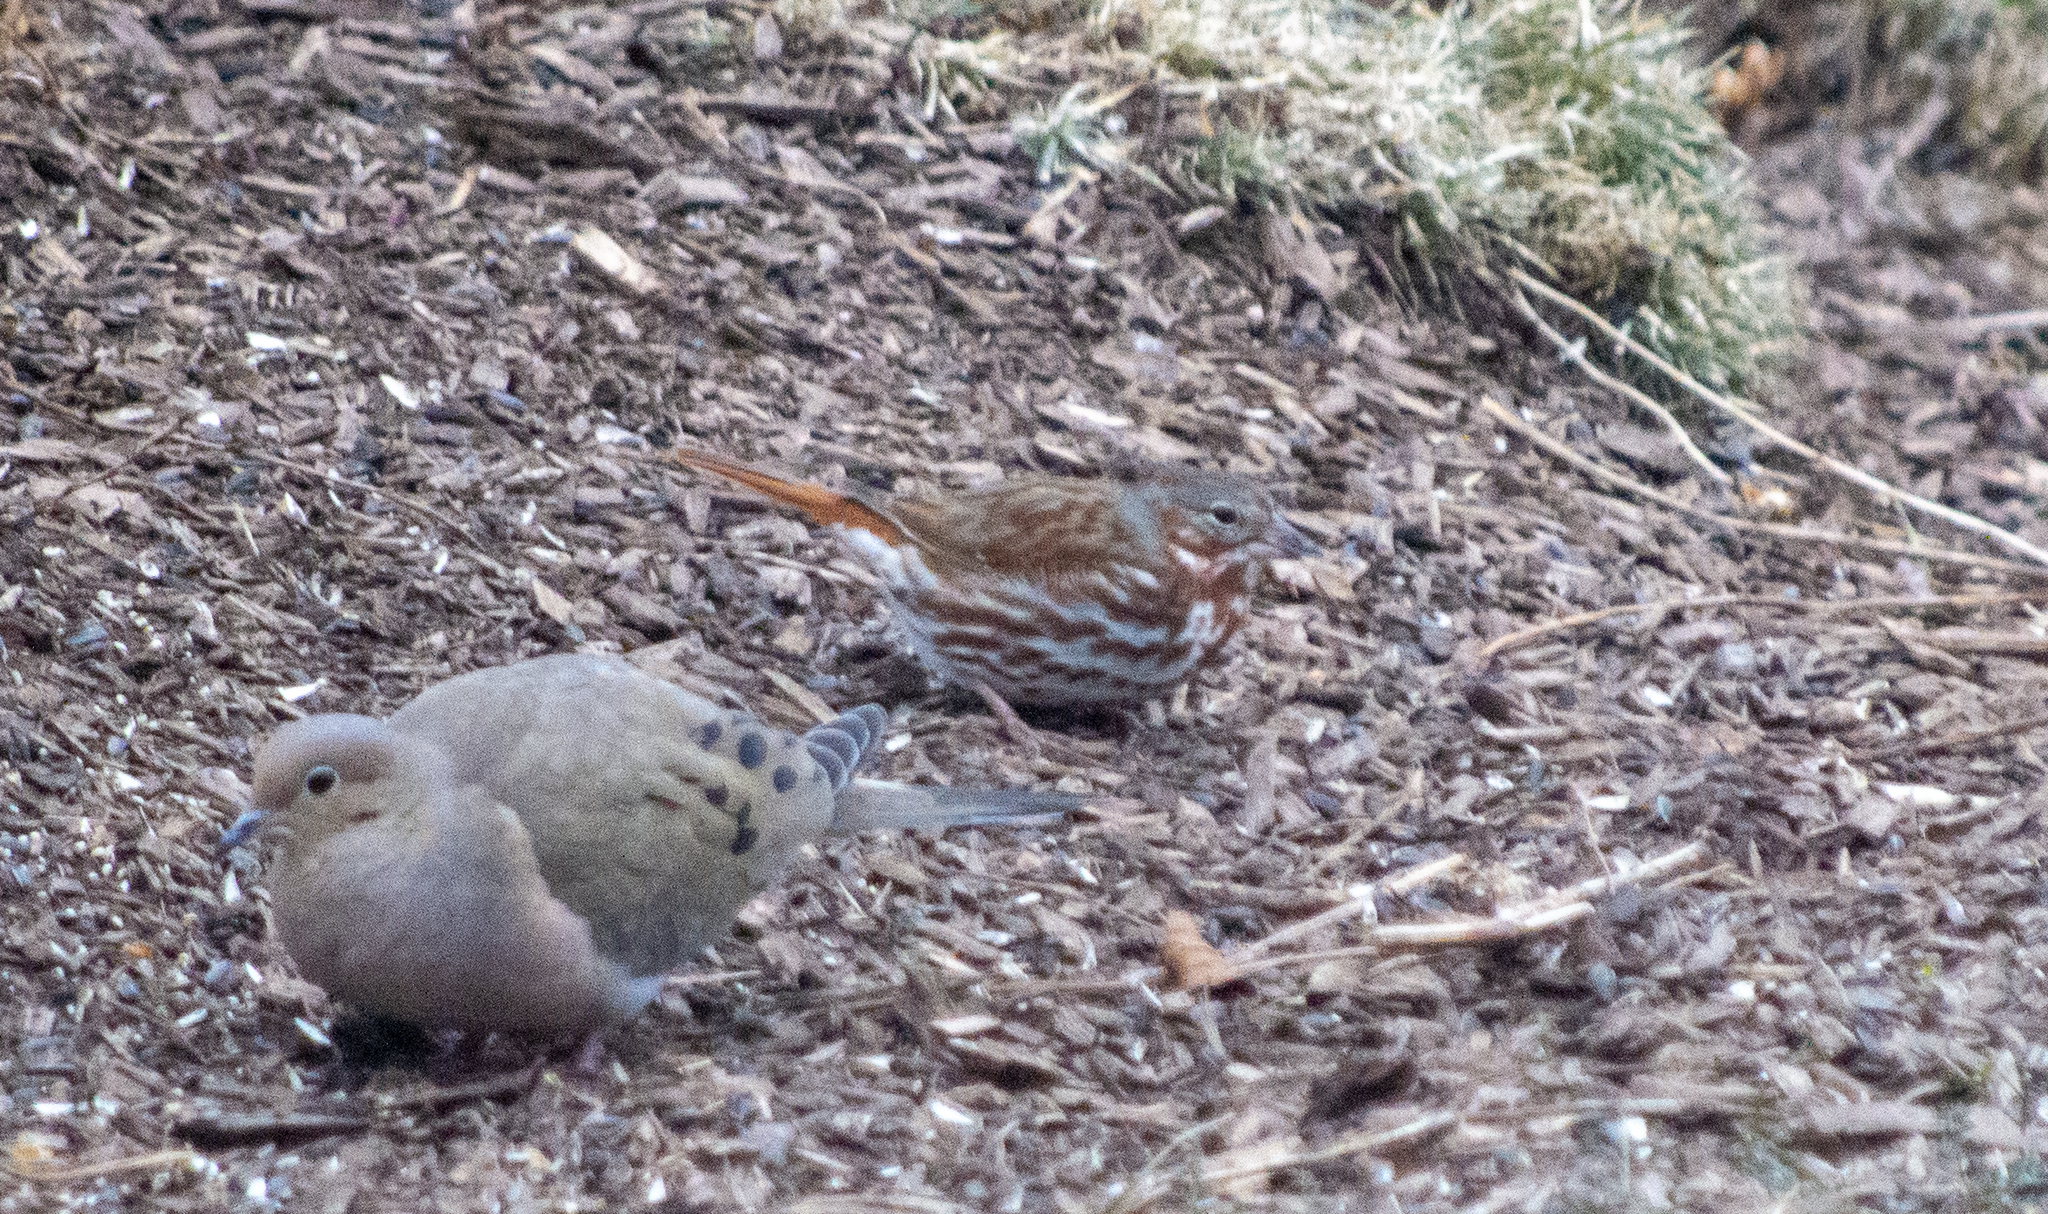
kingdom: Animalia
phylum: Chordata
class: Aves
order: Passeriformes
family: Passerellidae
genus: Passerella
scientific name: Passerella iliaca
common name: Fox sparrow
